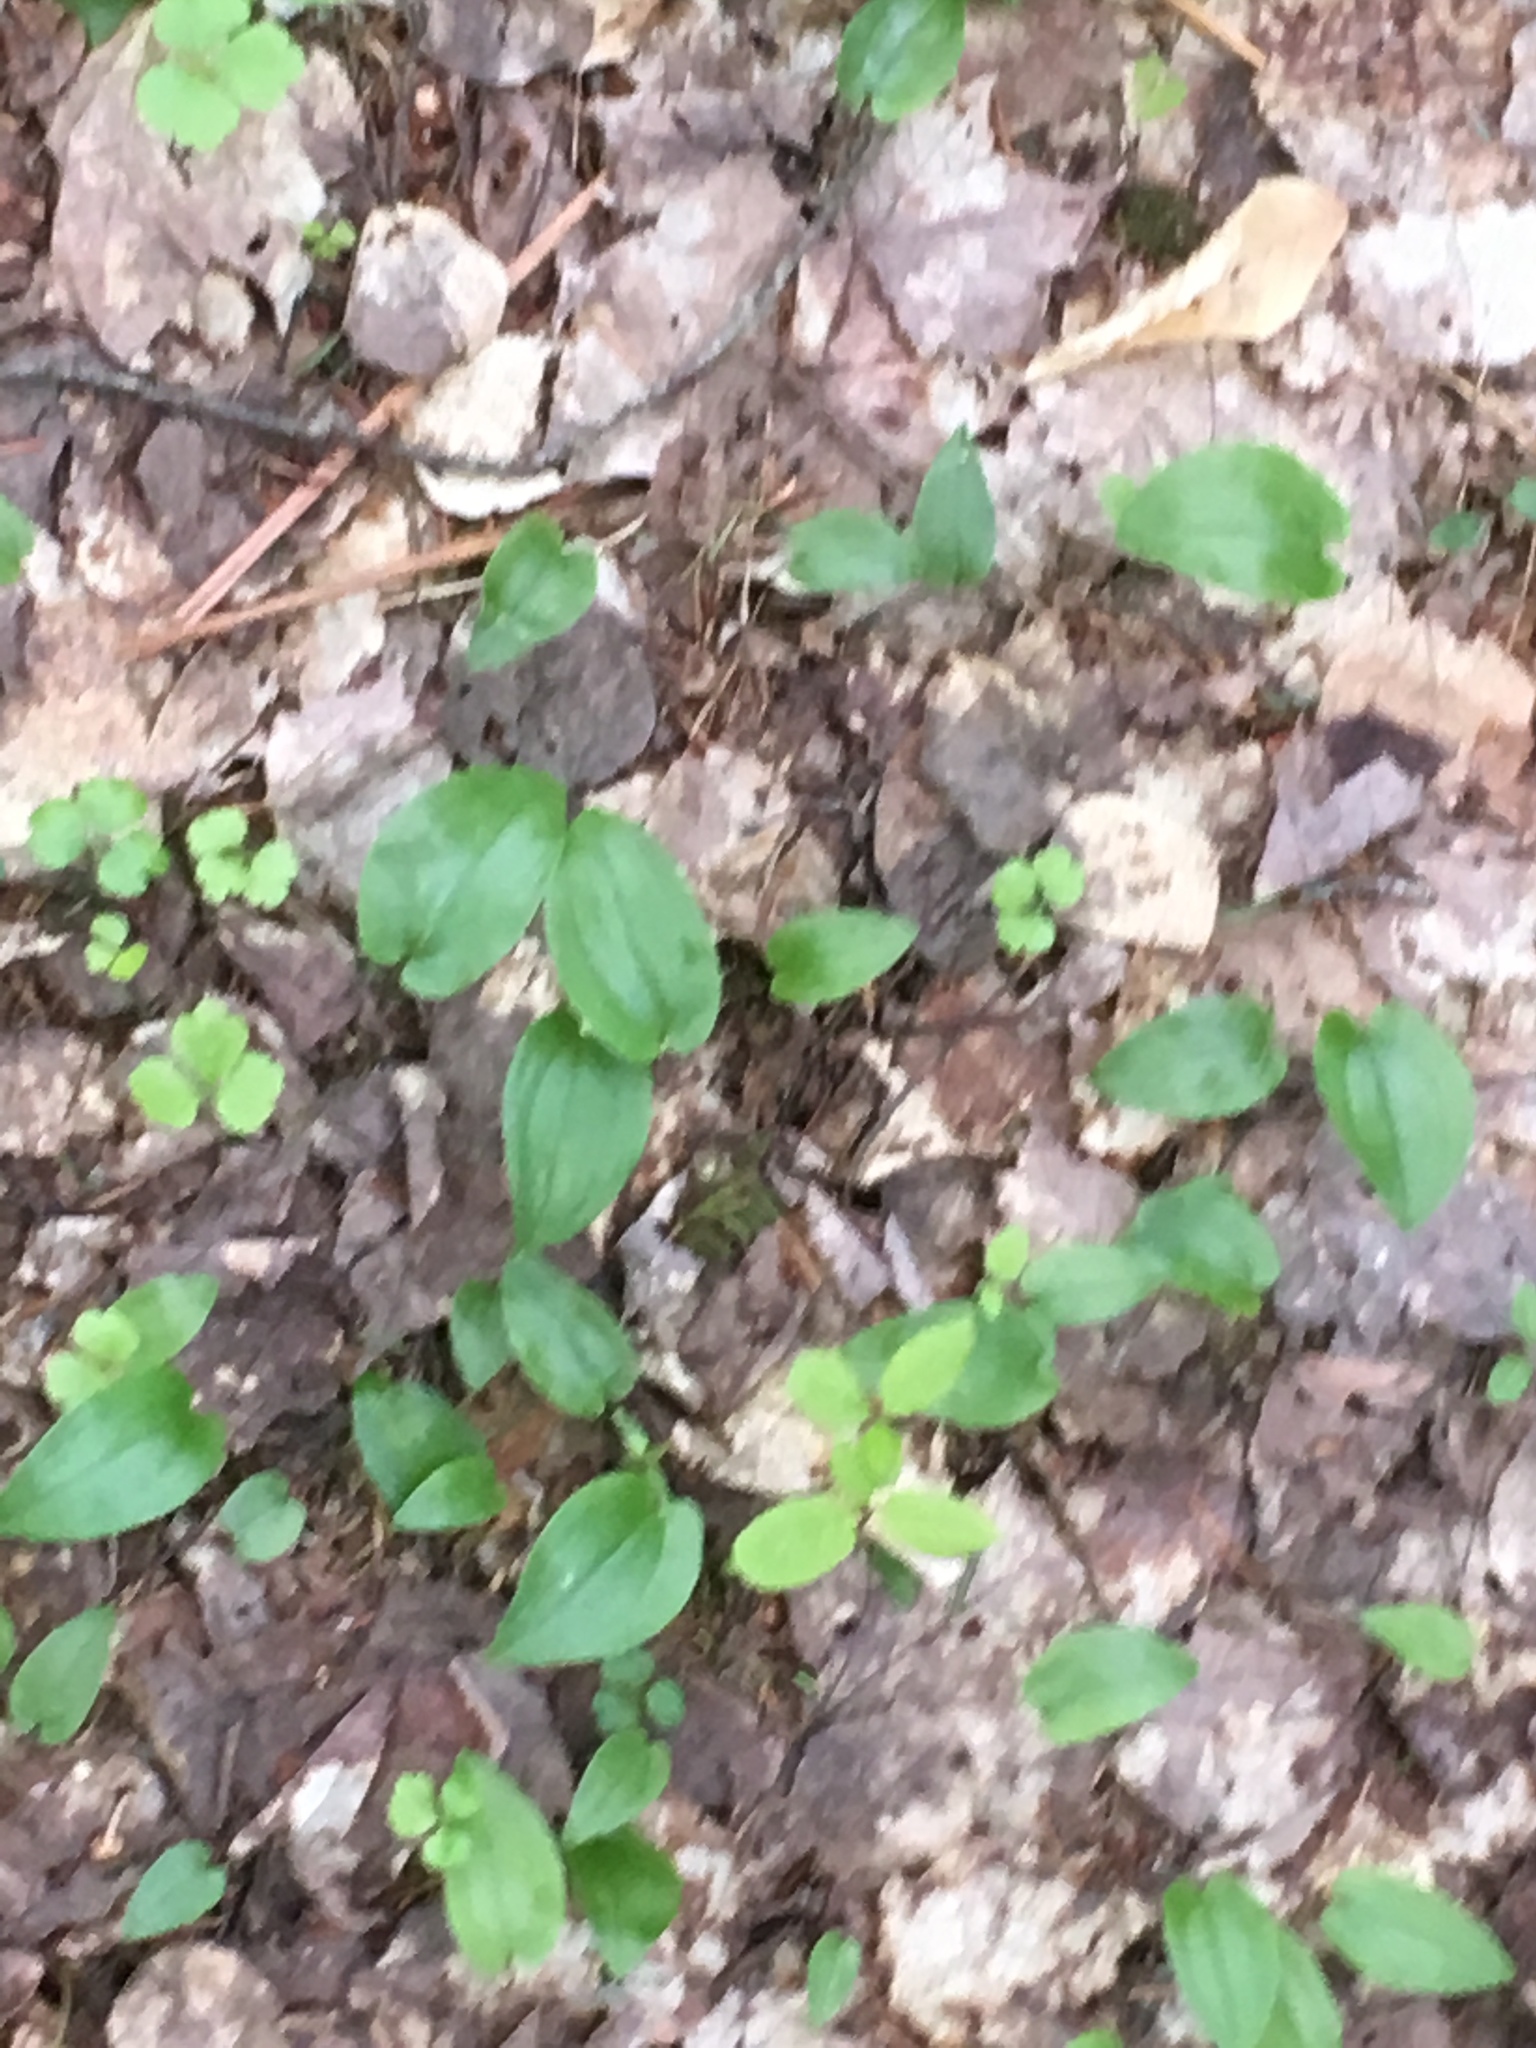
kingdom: Plantae
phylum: Tracheophyta
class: Liliopsida
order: Asparagales
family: Asparagaceae
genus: Maianthemum
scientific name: Maianthemum canadense
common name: False lily-of-the-valley
